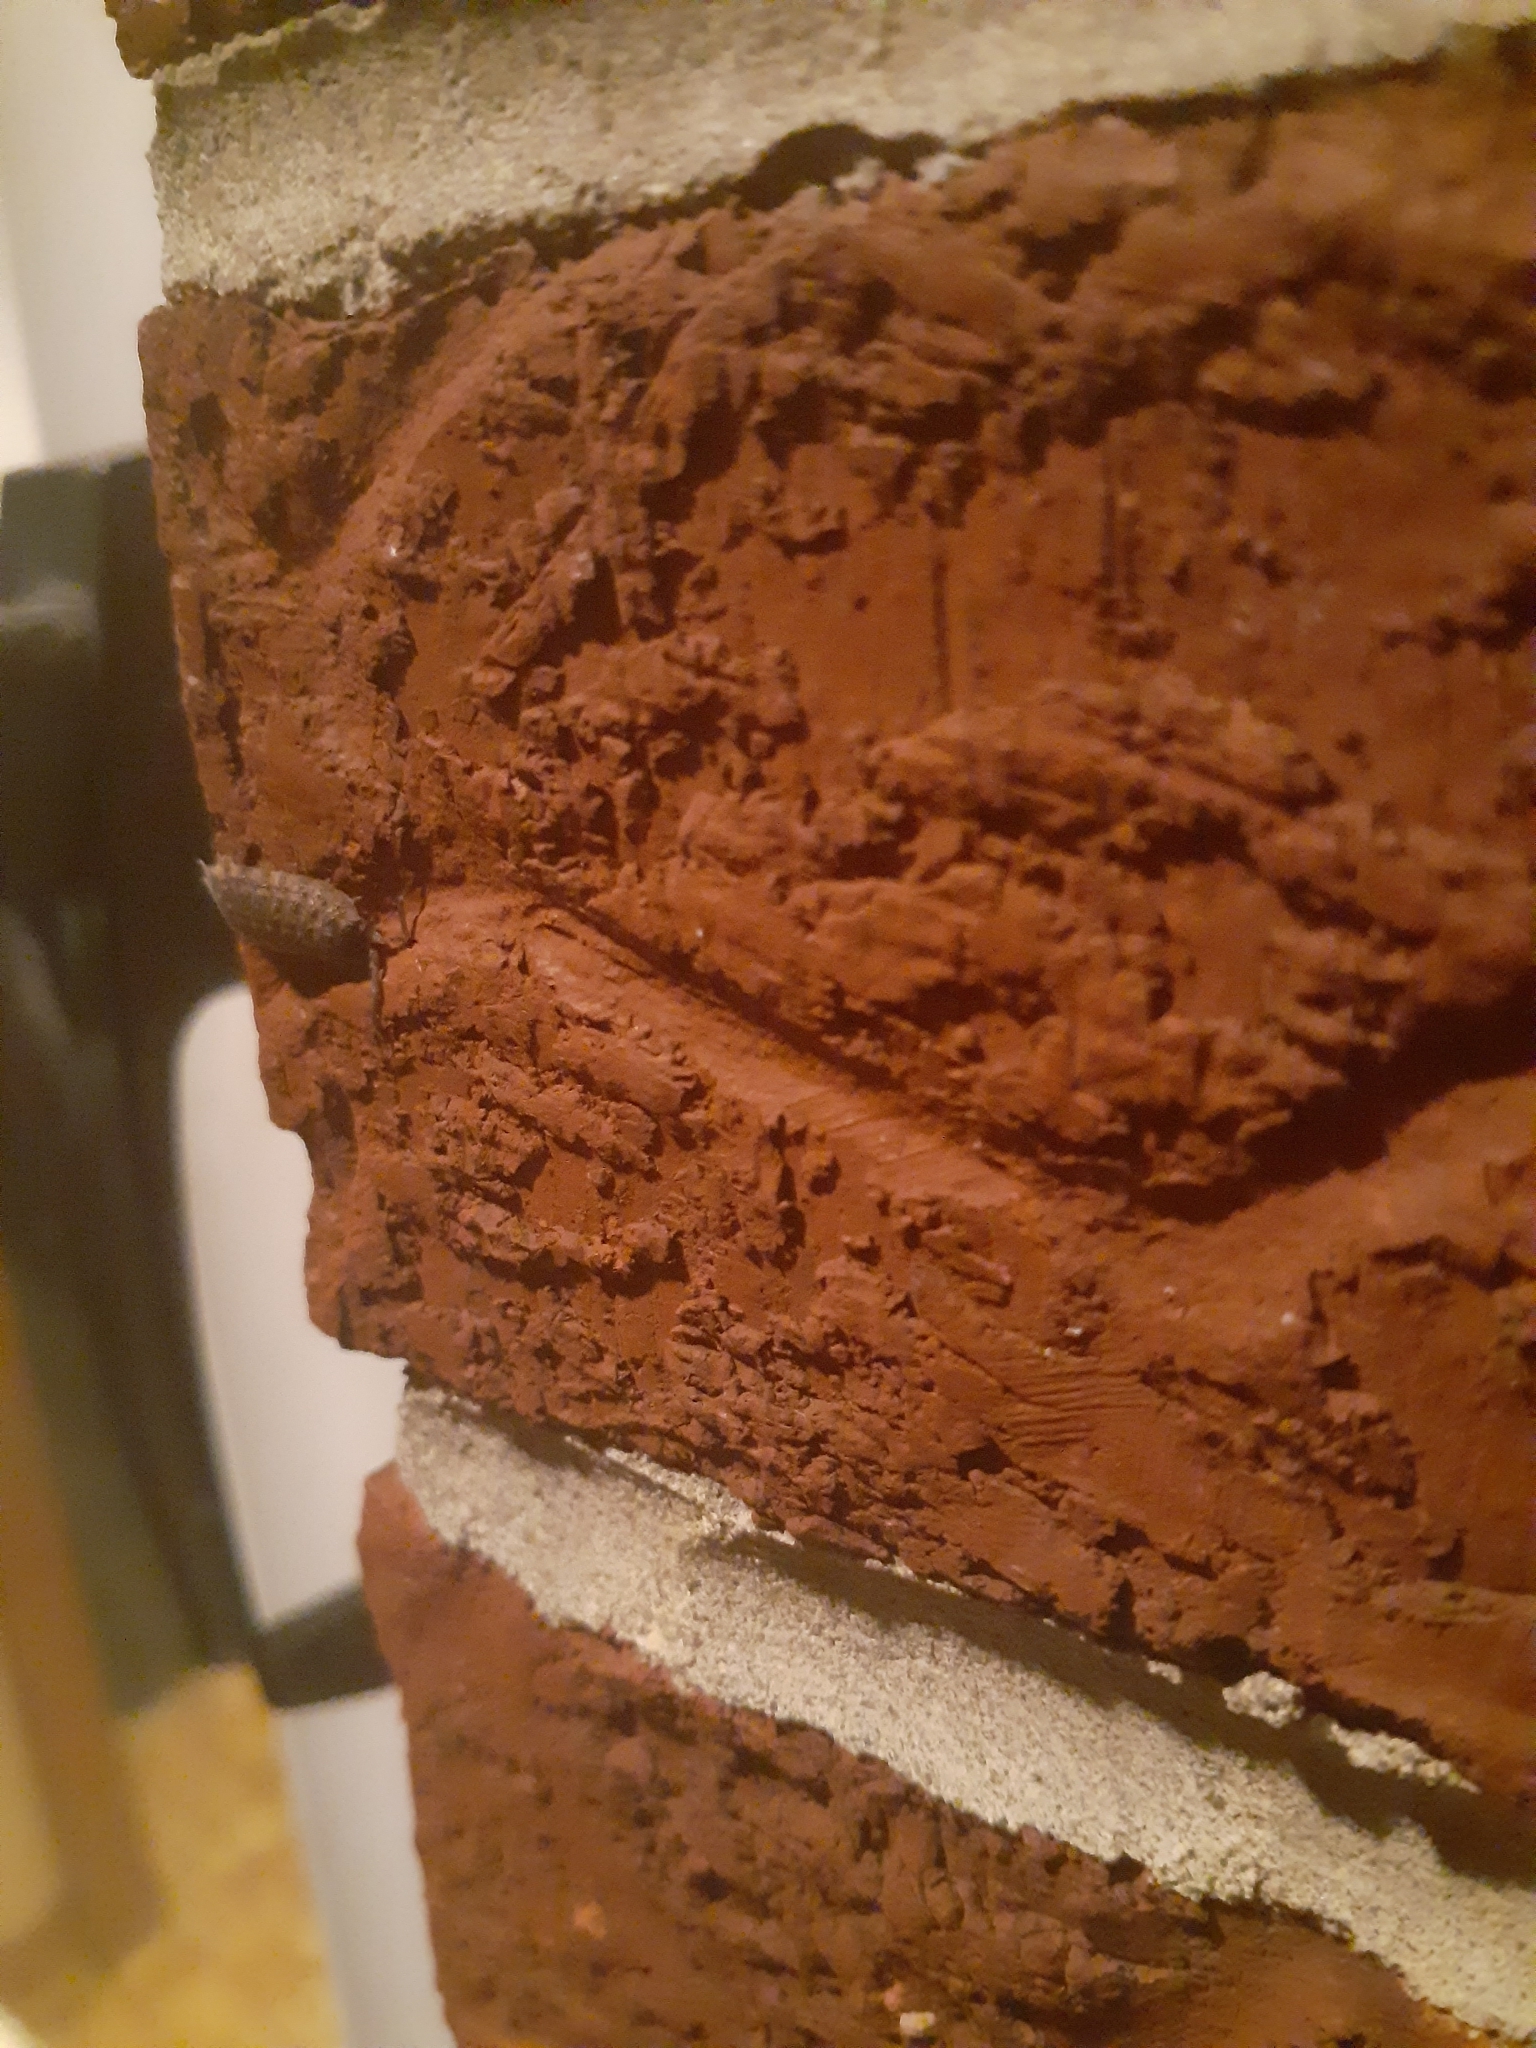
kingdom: Animalia
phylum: Arthropoda
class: Malacostraca
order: Isopoda
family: Porcellionidae
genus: Porcellio
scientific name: Porcellio spinicornis
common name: Painted woodlouse
